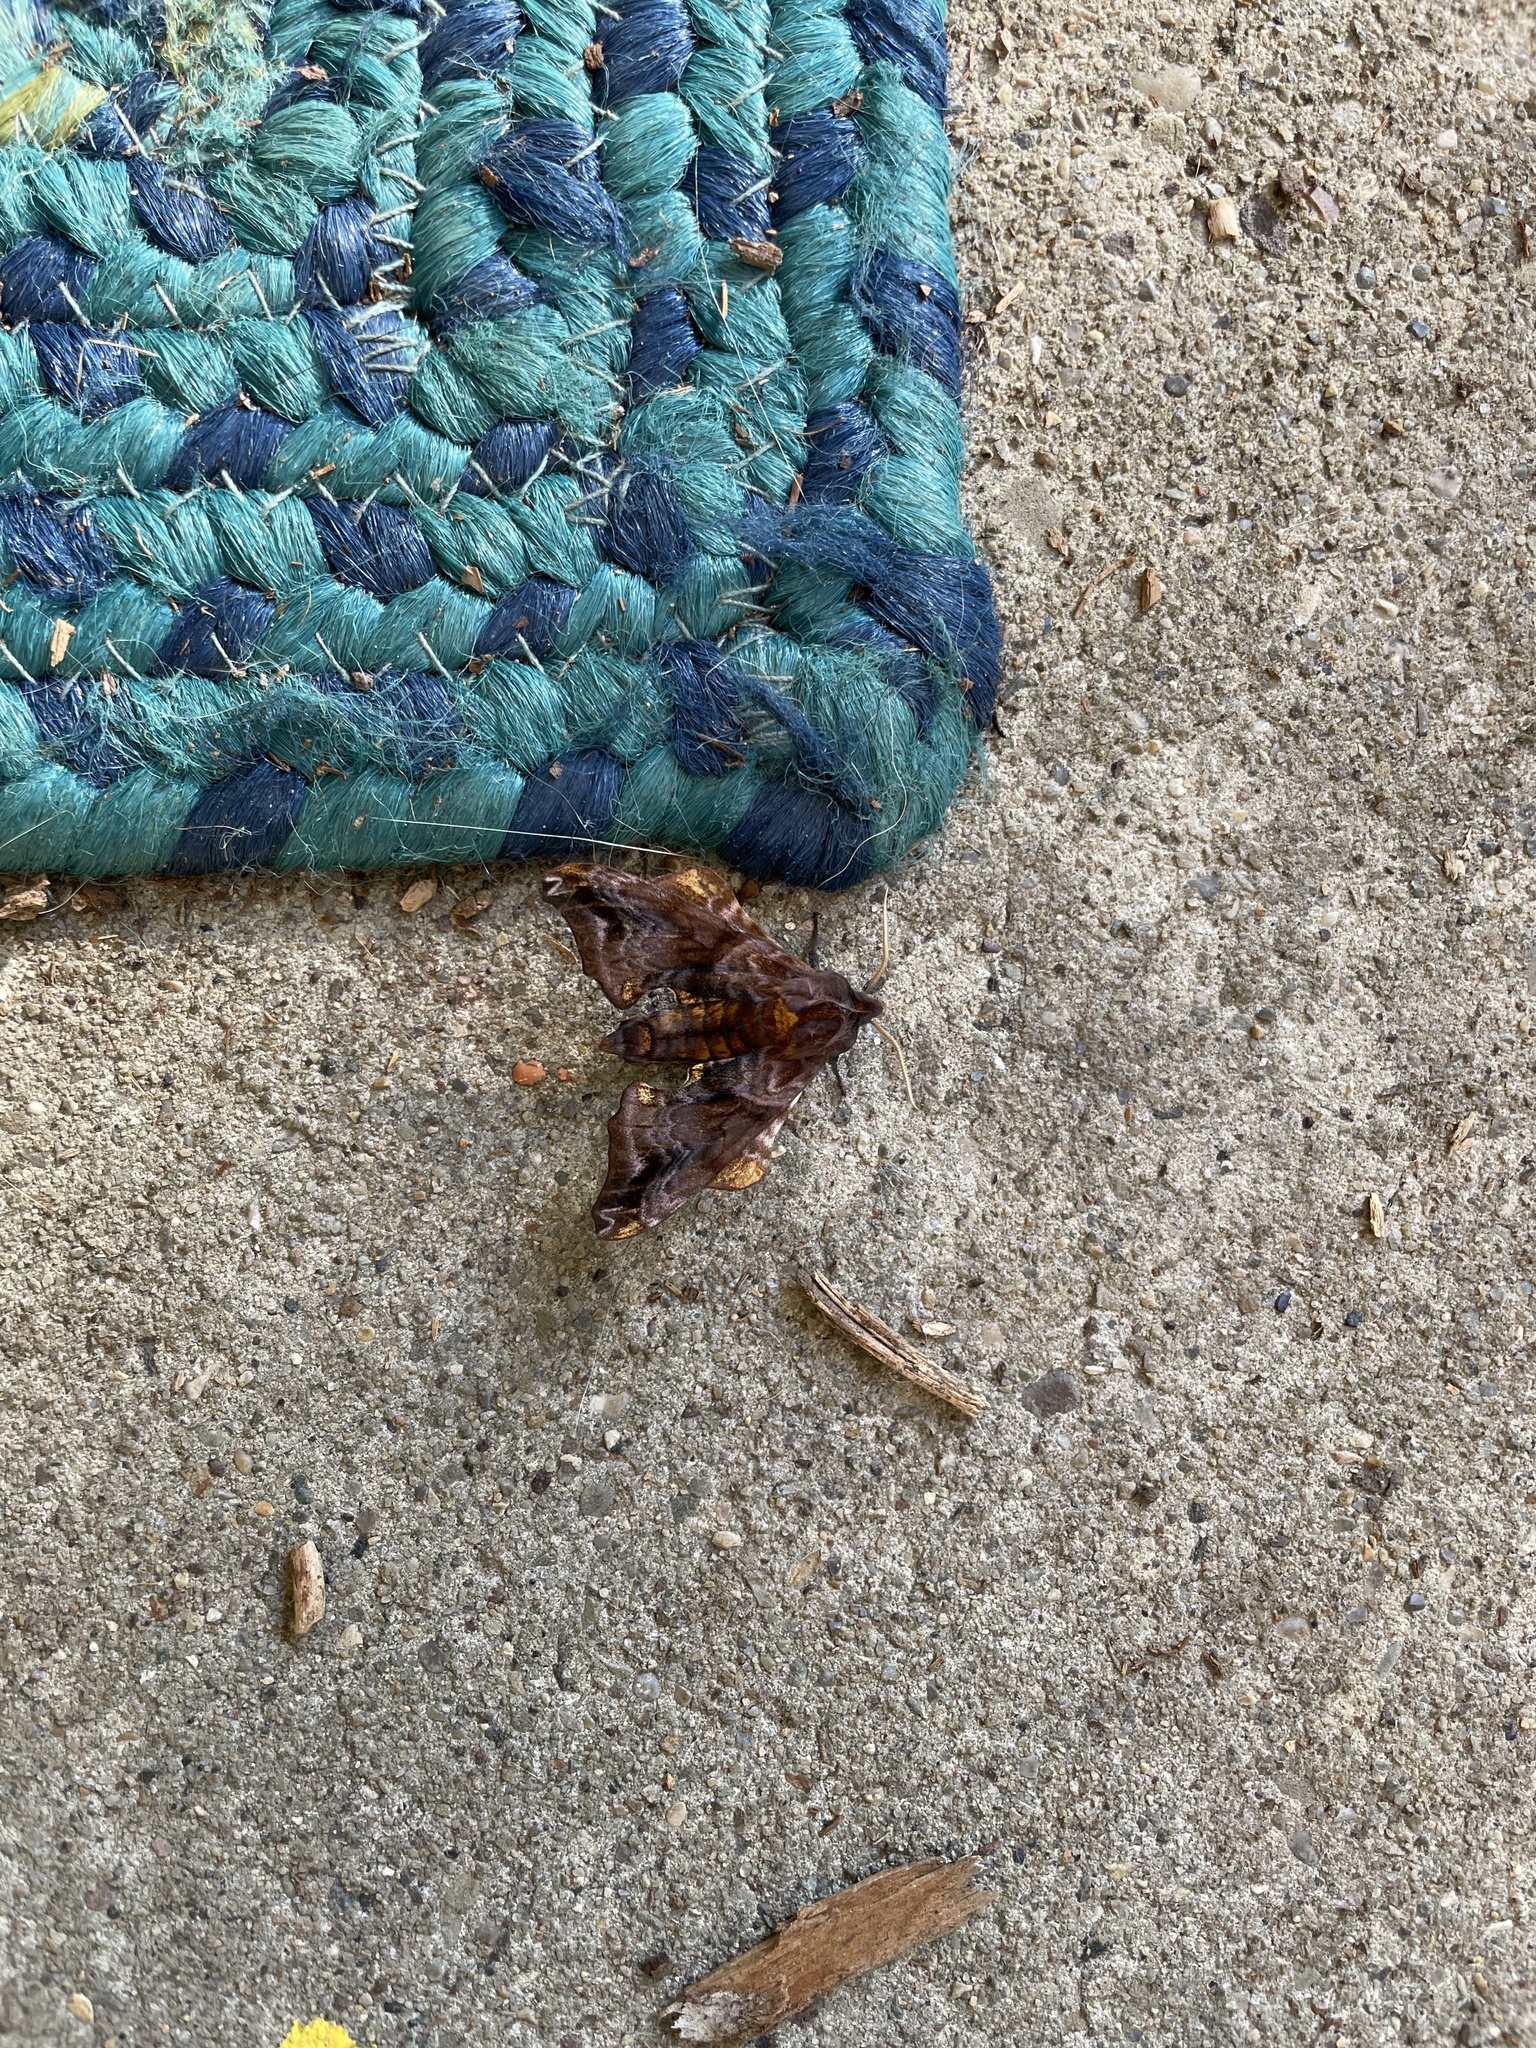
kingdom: Animalia
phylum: Arthropoda
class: Insecta
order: Lepidoptera
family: Sphingidae
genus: Paonias
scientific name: Paonias myops
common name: Small-eyed sphinx
